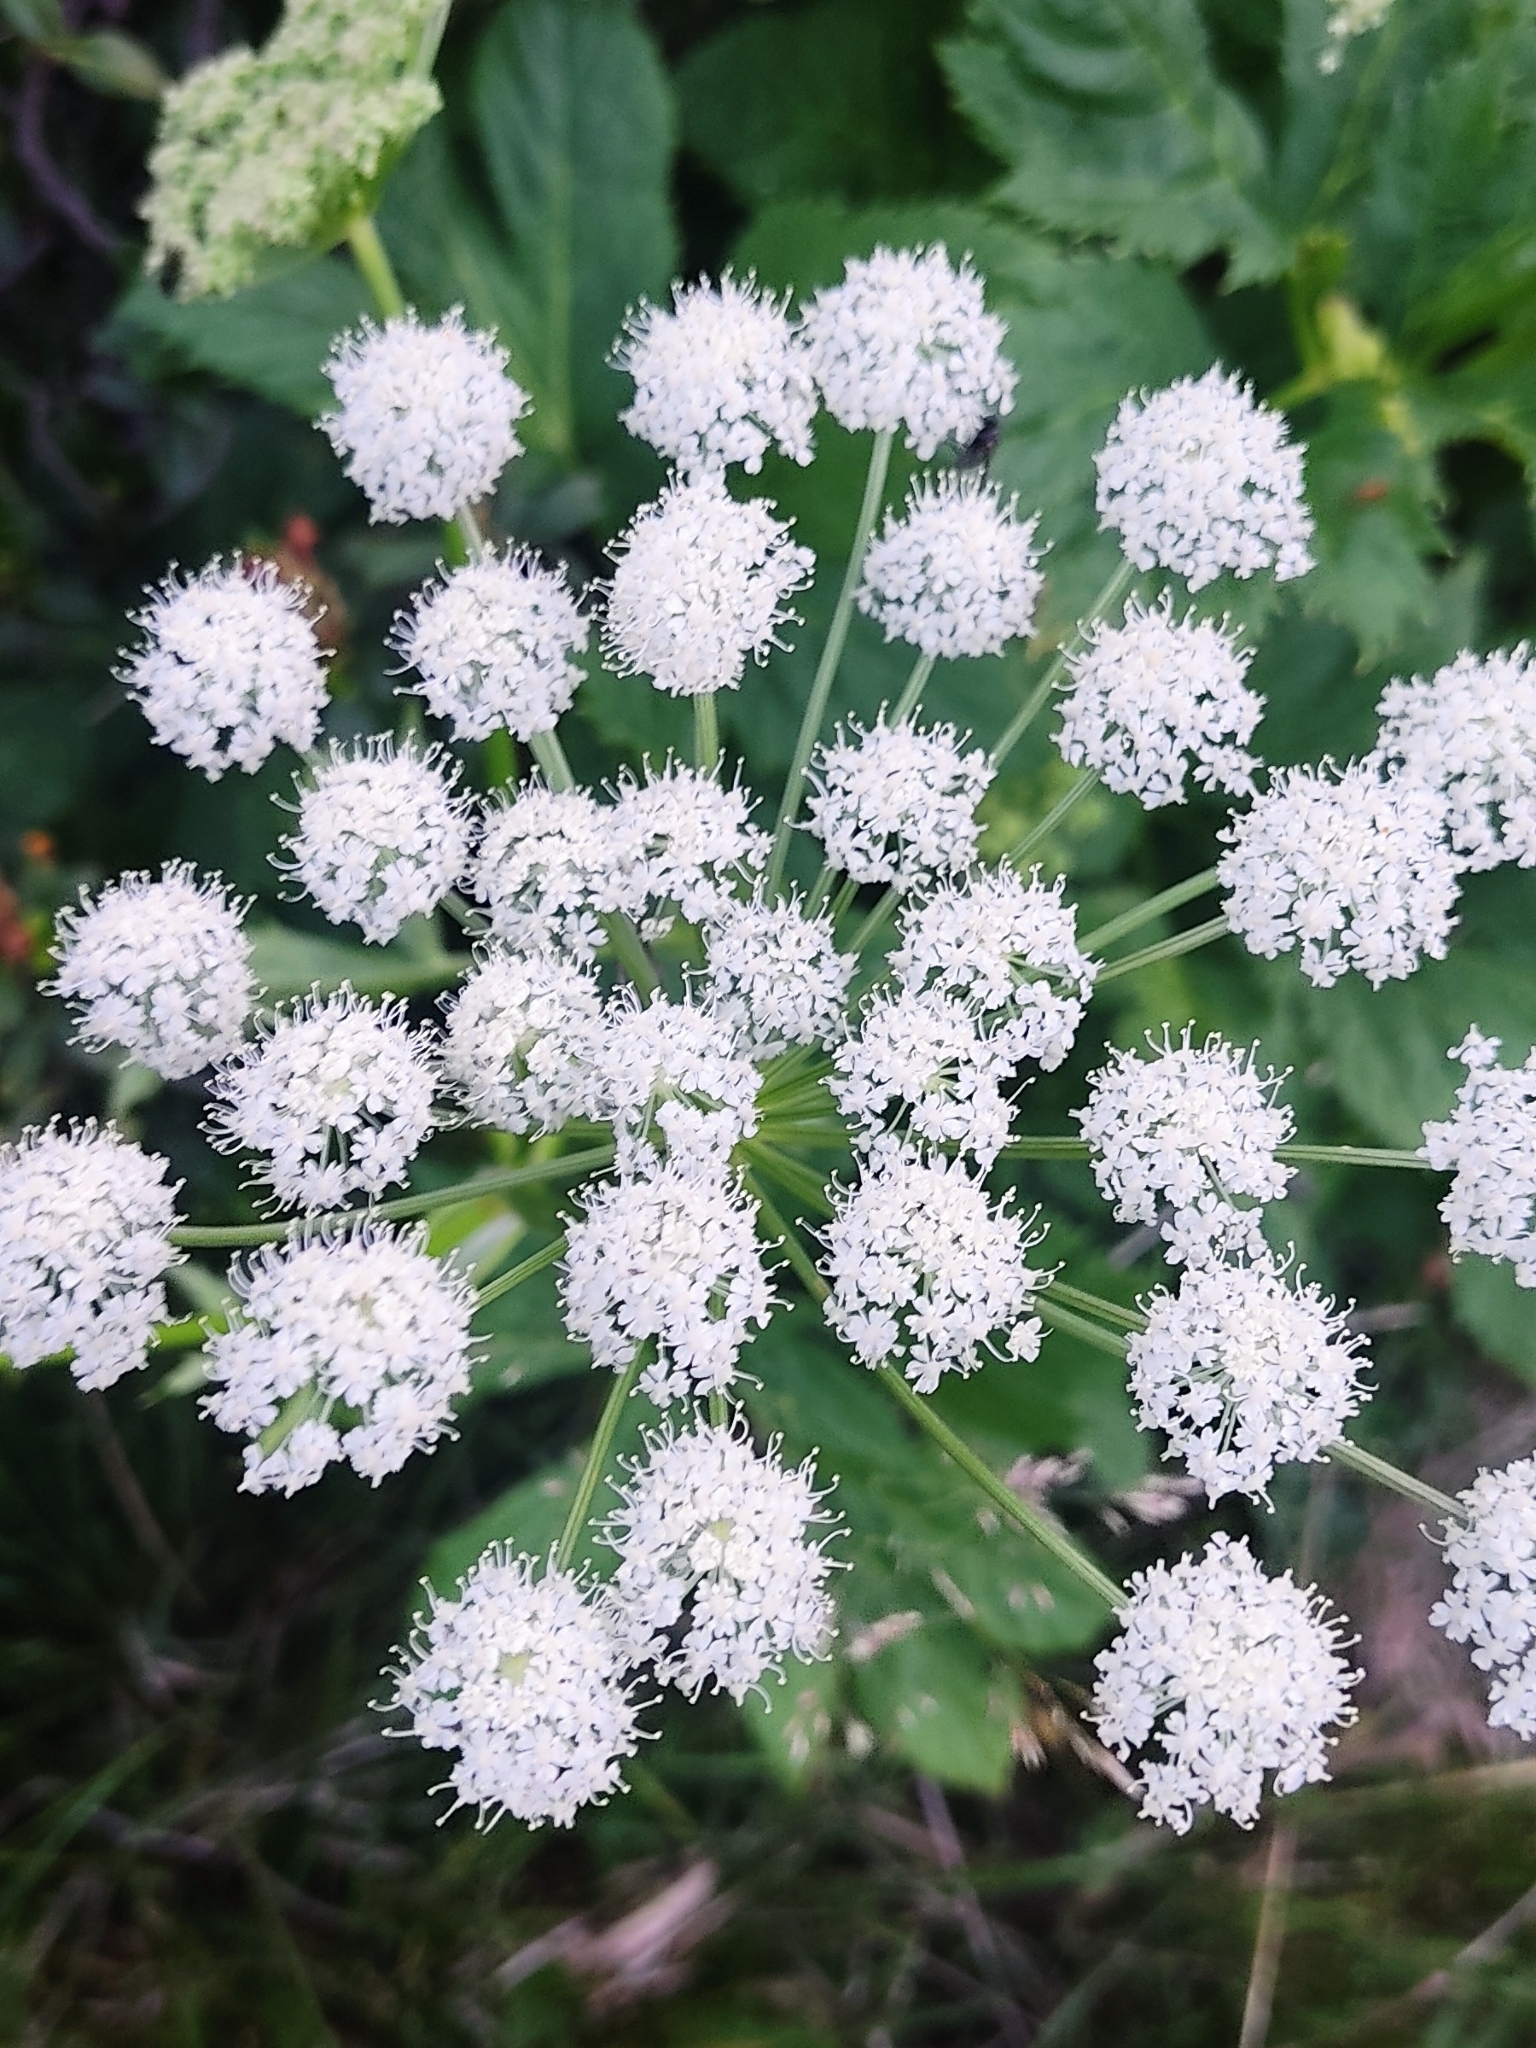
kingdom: Plantae
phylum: Tracheophyta
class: Magnoliopsida
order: Apiales
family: Apiaceae
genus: Imperatoria
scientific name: Imperatoria ostruthium
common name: Masterwort
